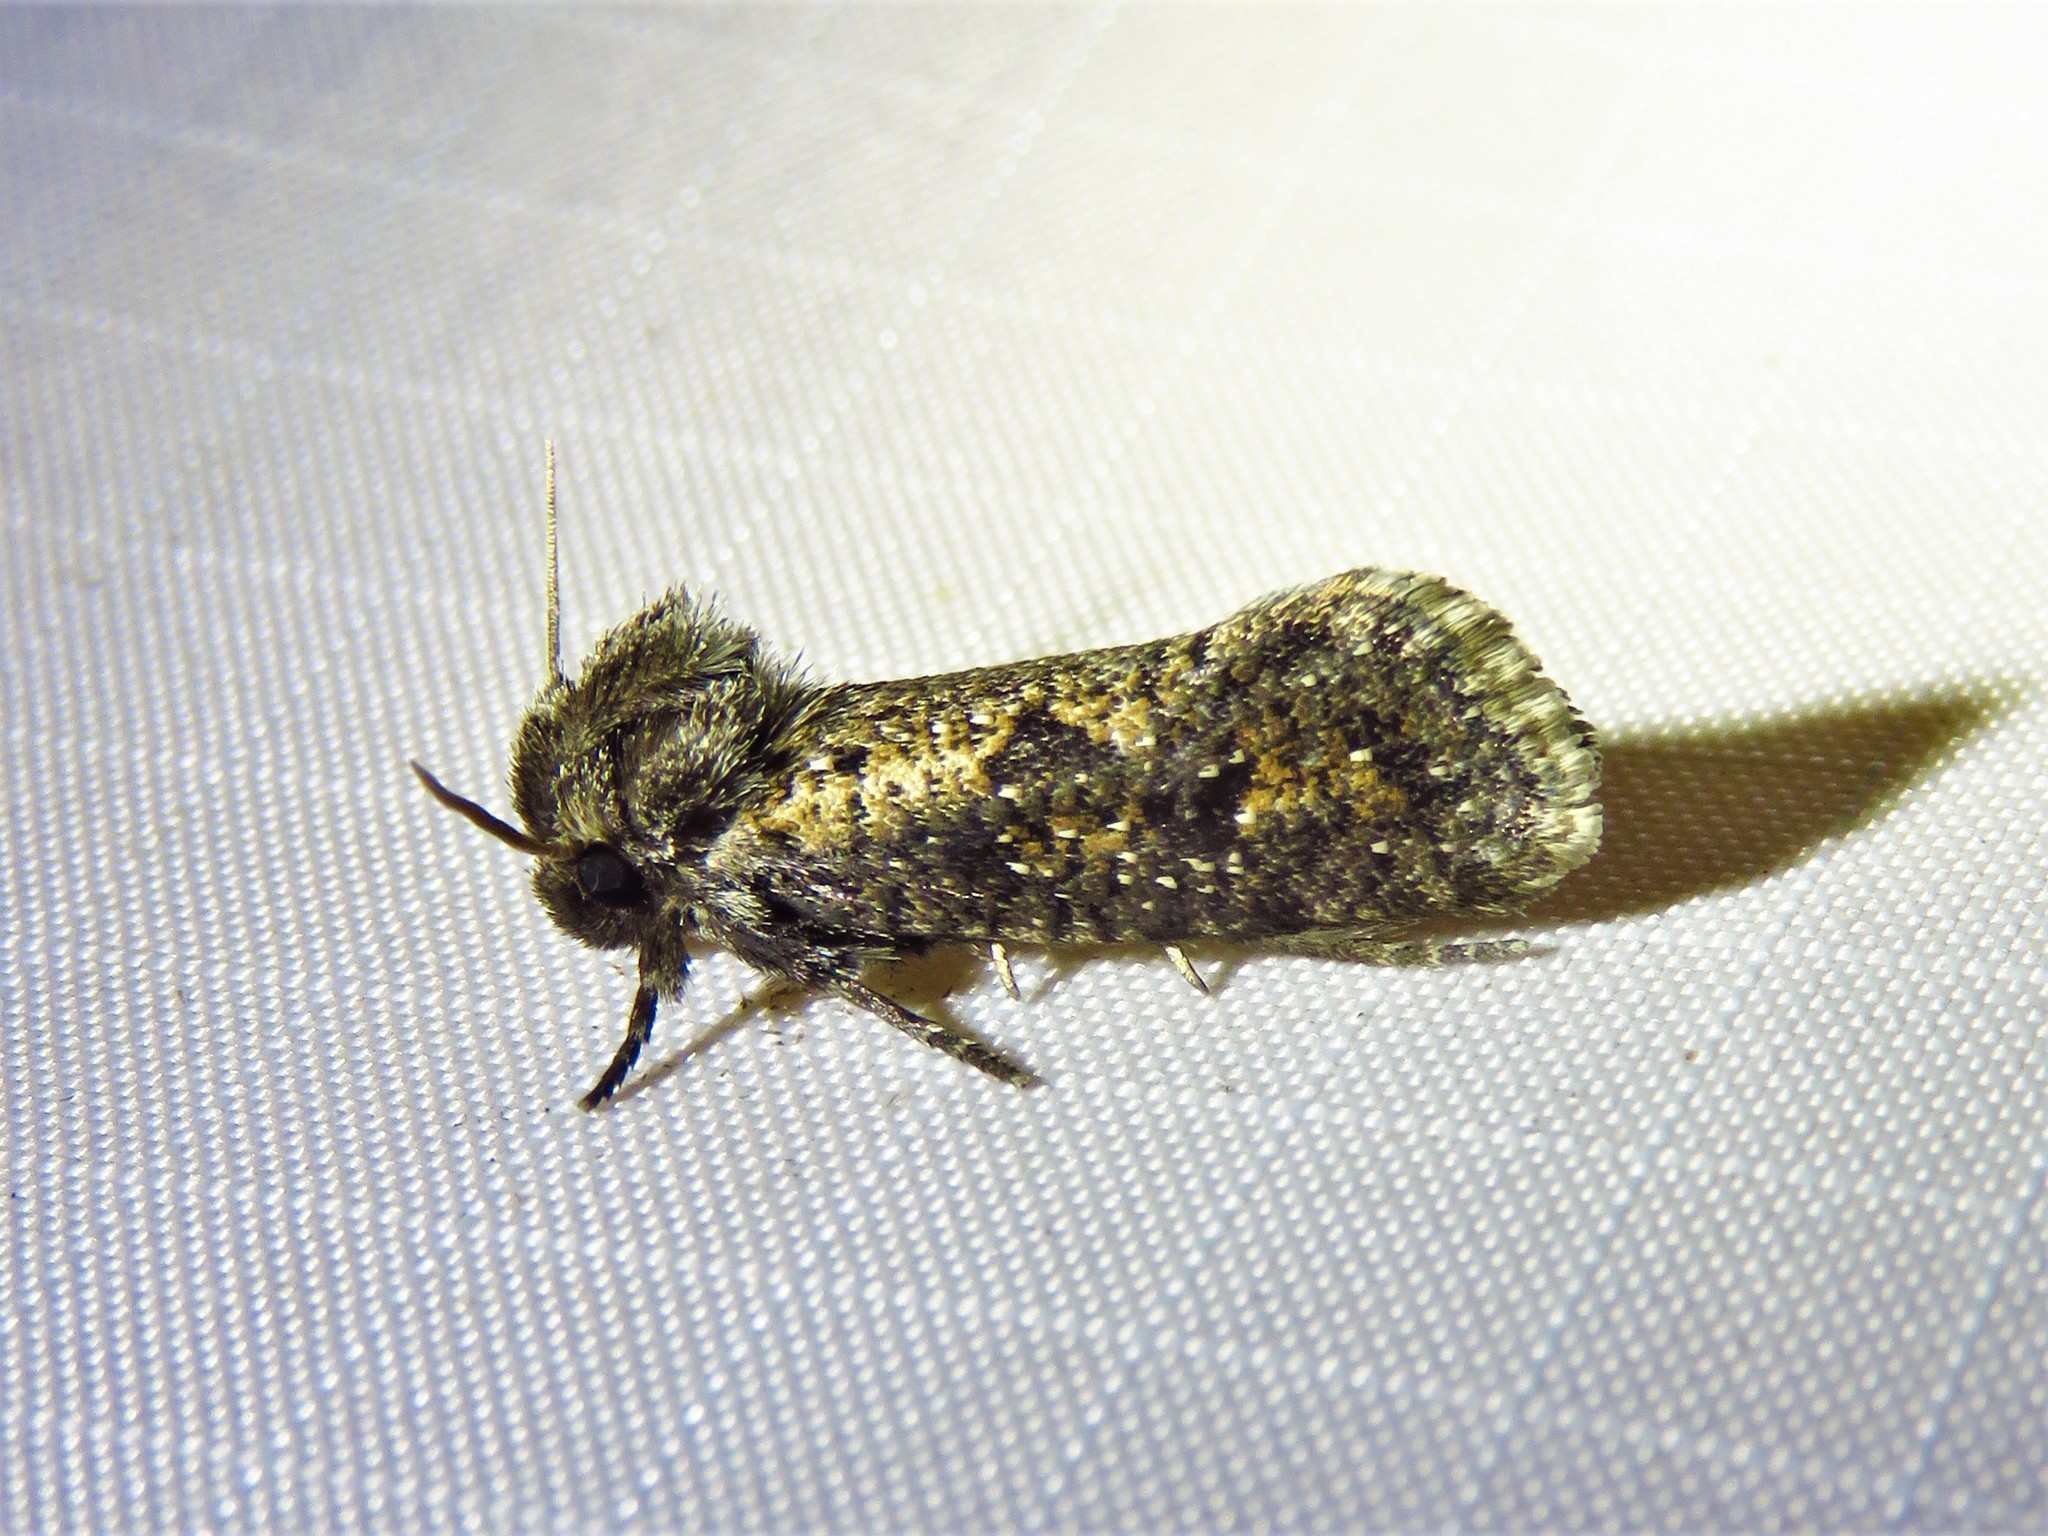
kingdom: Animalia
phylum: Arthropoda
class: Insecta
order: Lepidoptera
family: Tineidae
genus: Acrolophus
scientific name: Acrolophus popeanella
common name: Clemens' grass tubeworm moth
